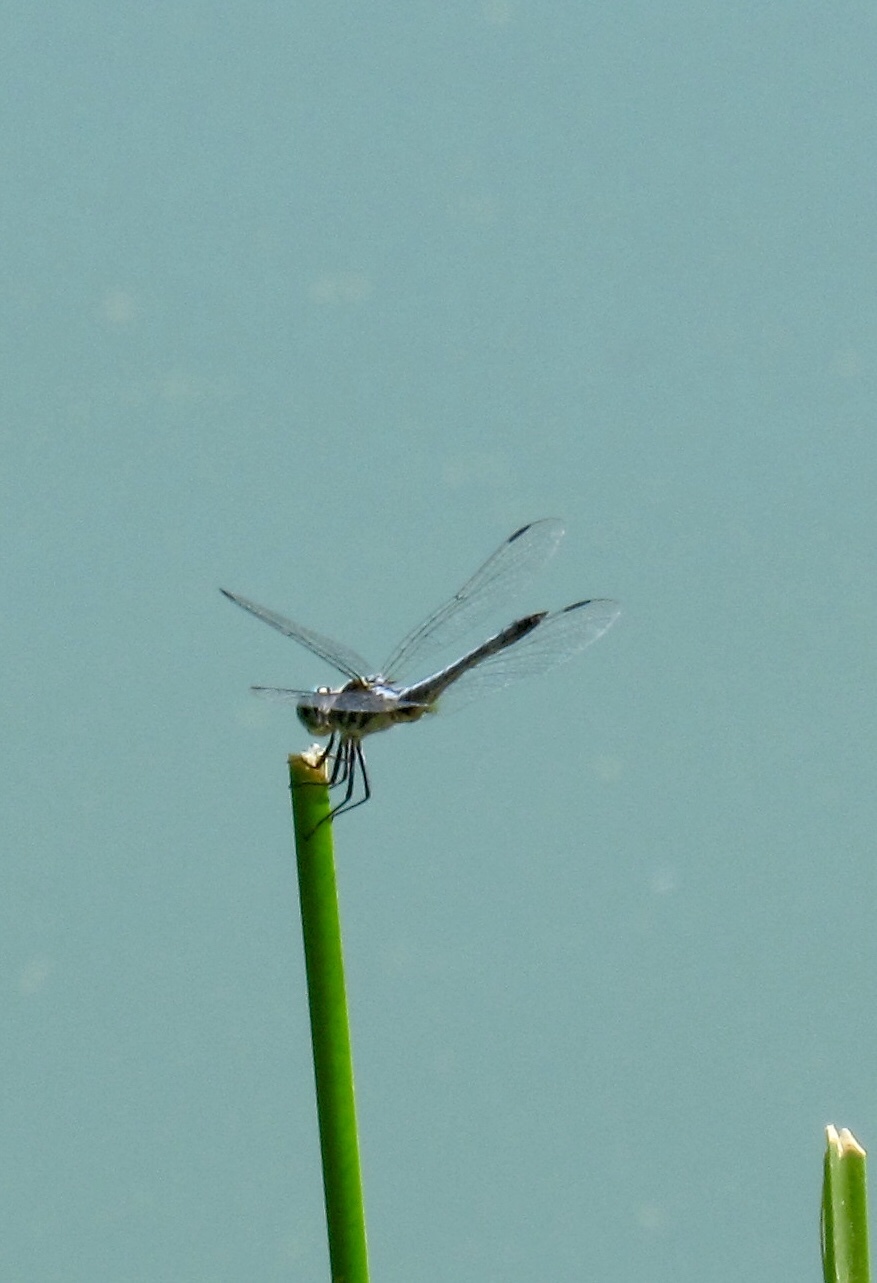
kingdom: Animalia
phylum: Arthropoda
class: Insecta
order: Odonata
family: Libellulidae
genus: Pachydiplax
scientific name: Pachydiplax longipennis
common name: Blue dasher
